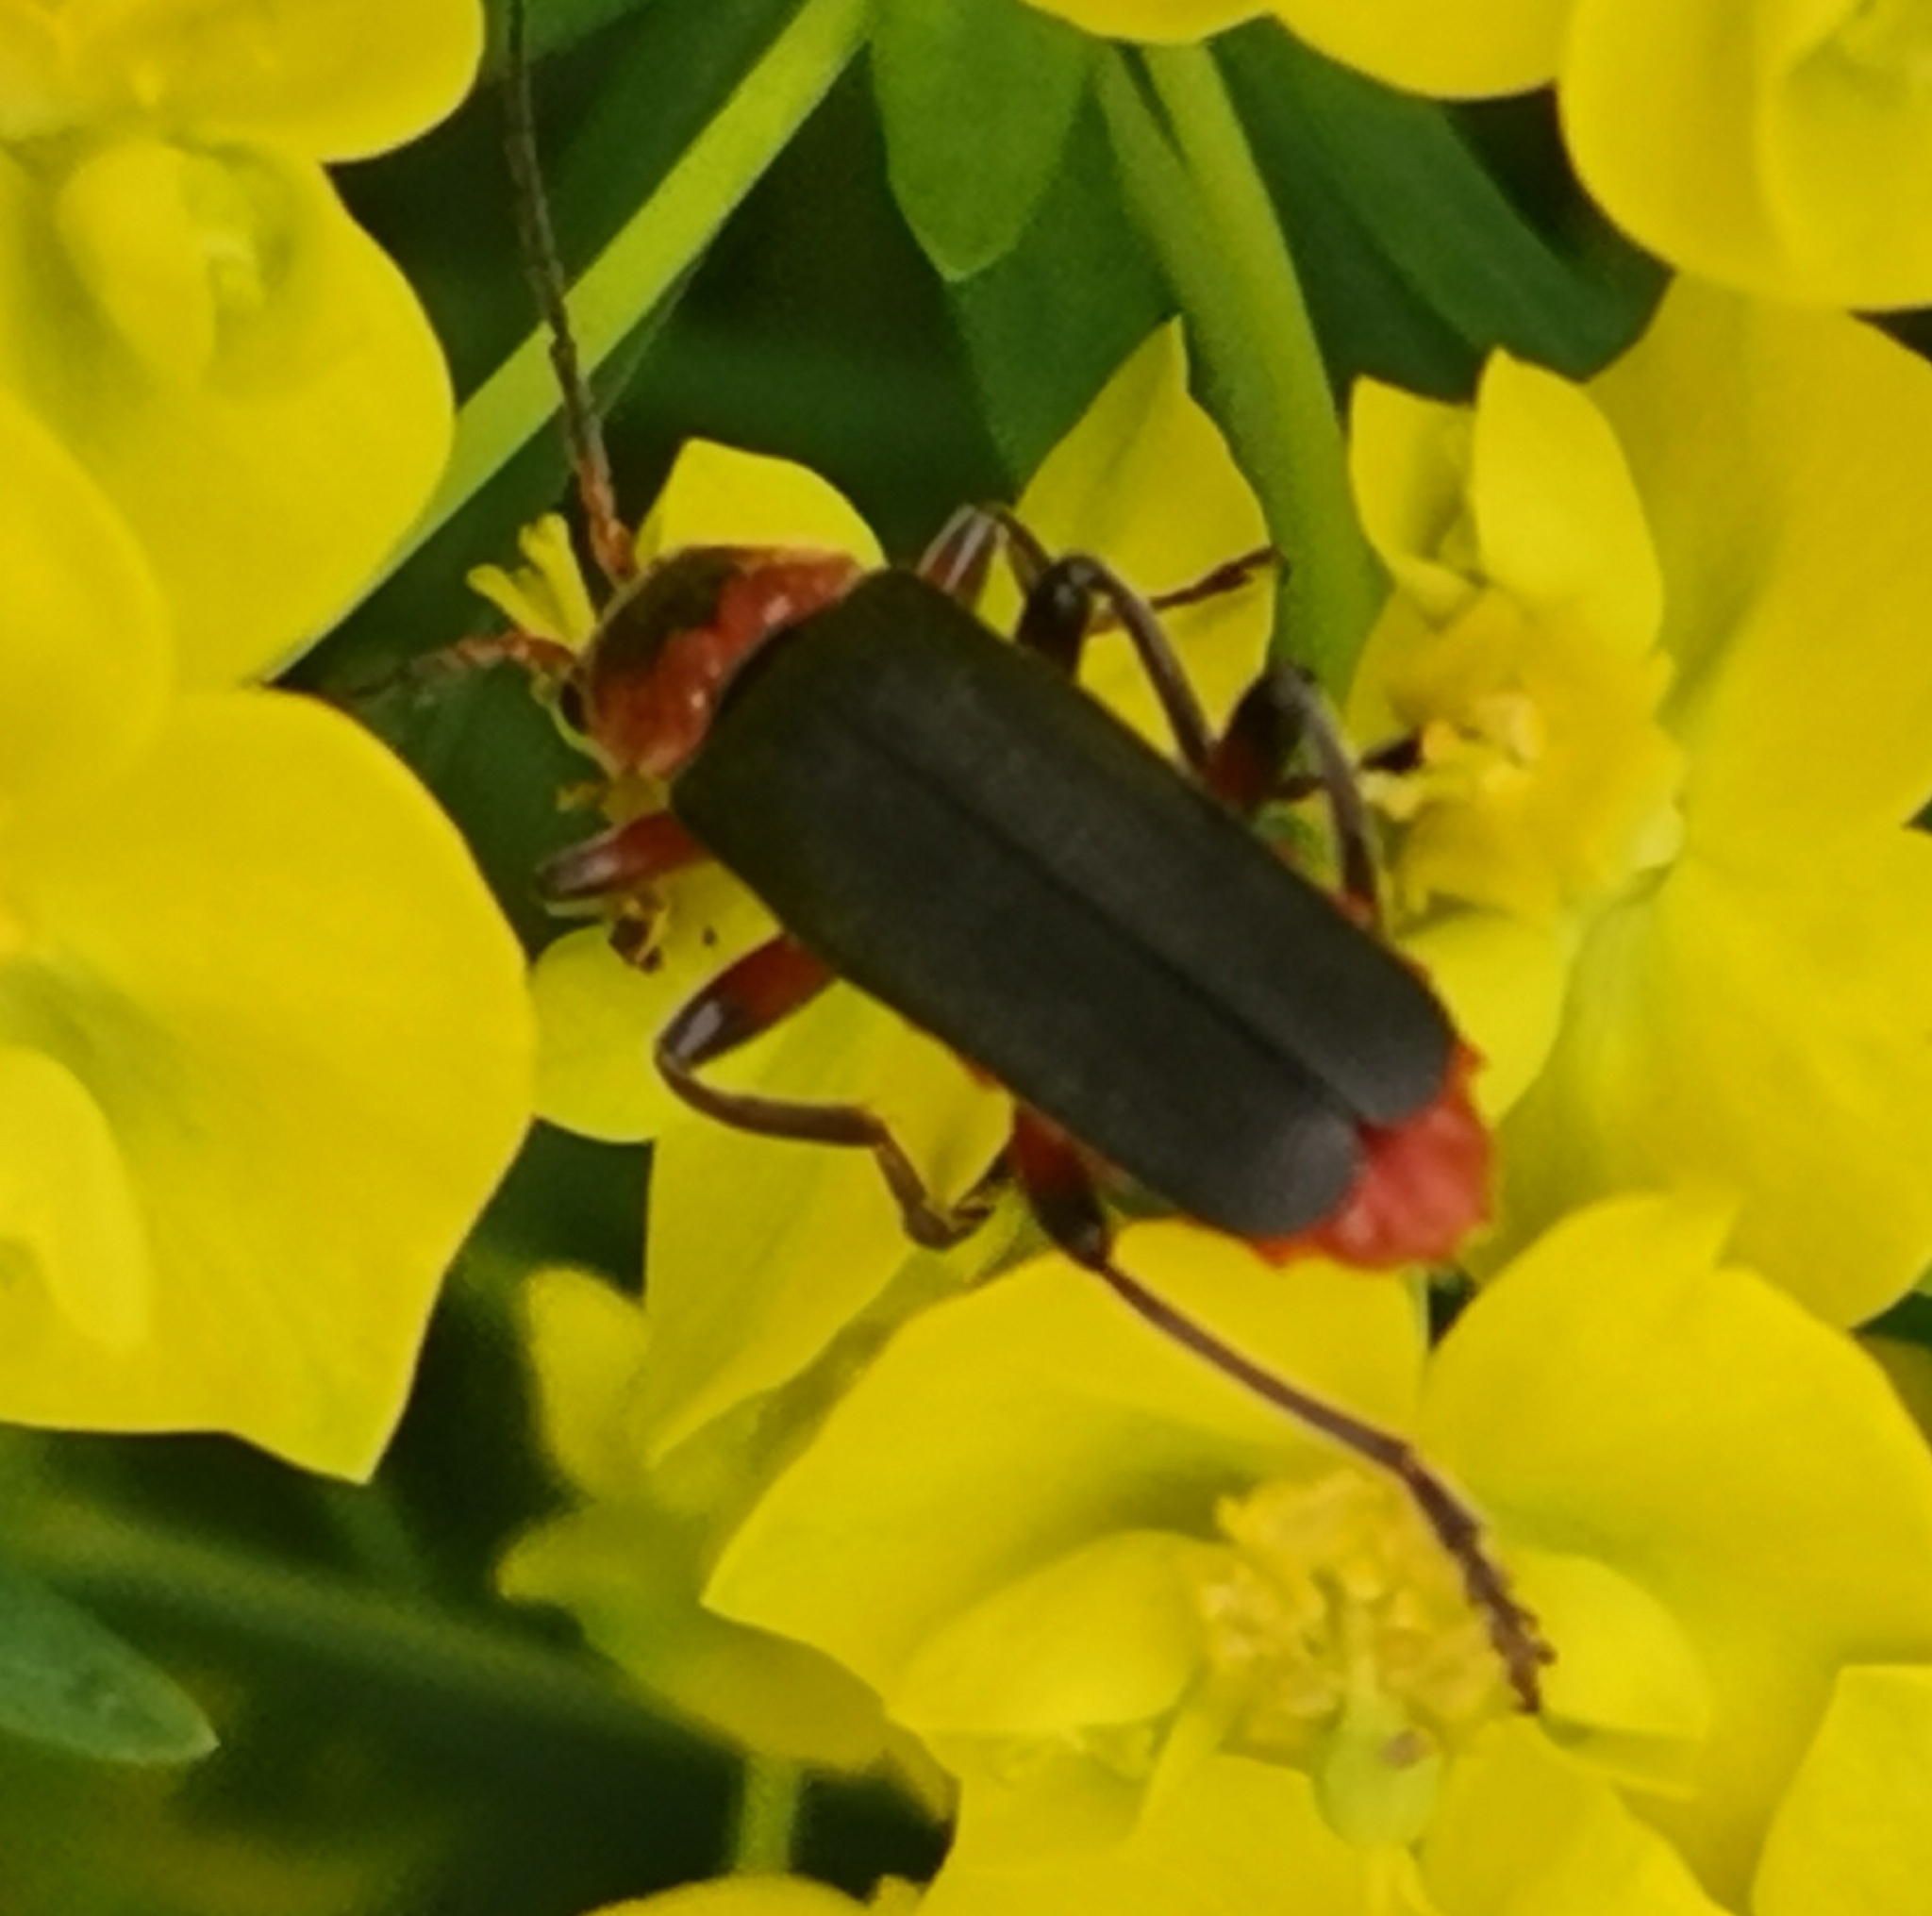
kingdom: Animalia
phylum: Arthropoda
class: Insecta
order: Coleoptera
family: Cantharidae
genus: Cantharis
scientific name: Cantharis rustica
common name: Soldier beetle
